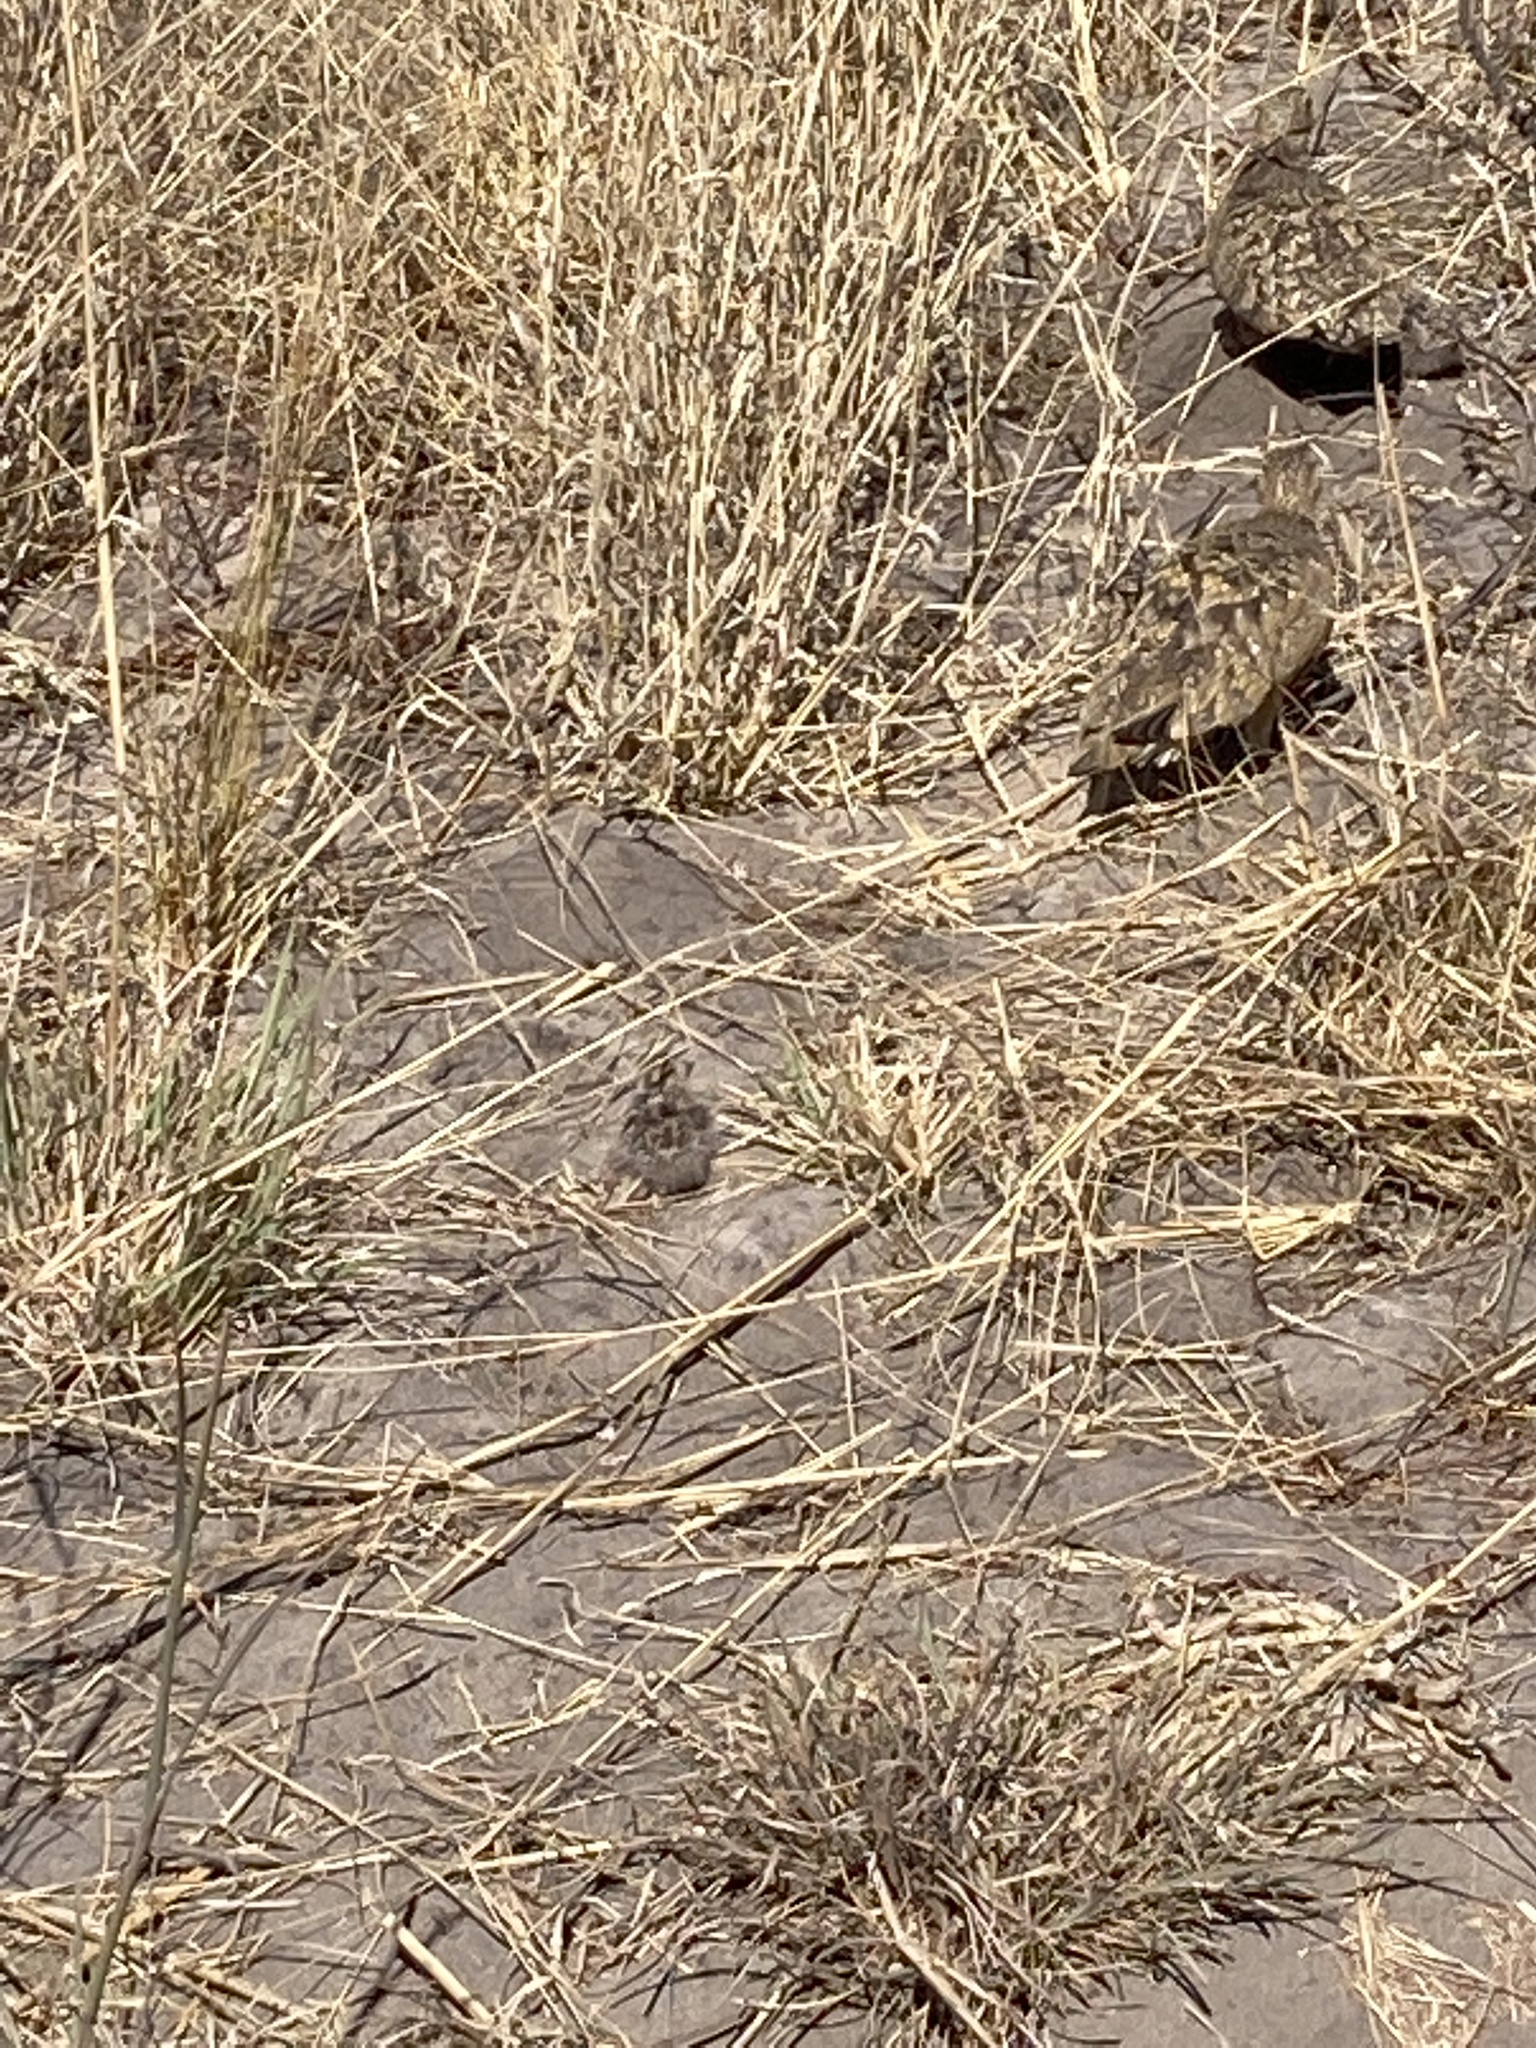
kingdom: Animalia
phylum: Chordata
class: Aves
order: Pteroclidiformes
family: Pteroclididae
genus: Pterocles
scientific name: Pterocles burchelli
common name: Burchell's sandgrouse
